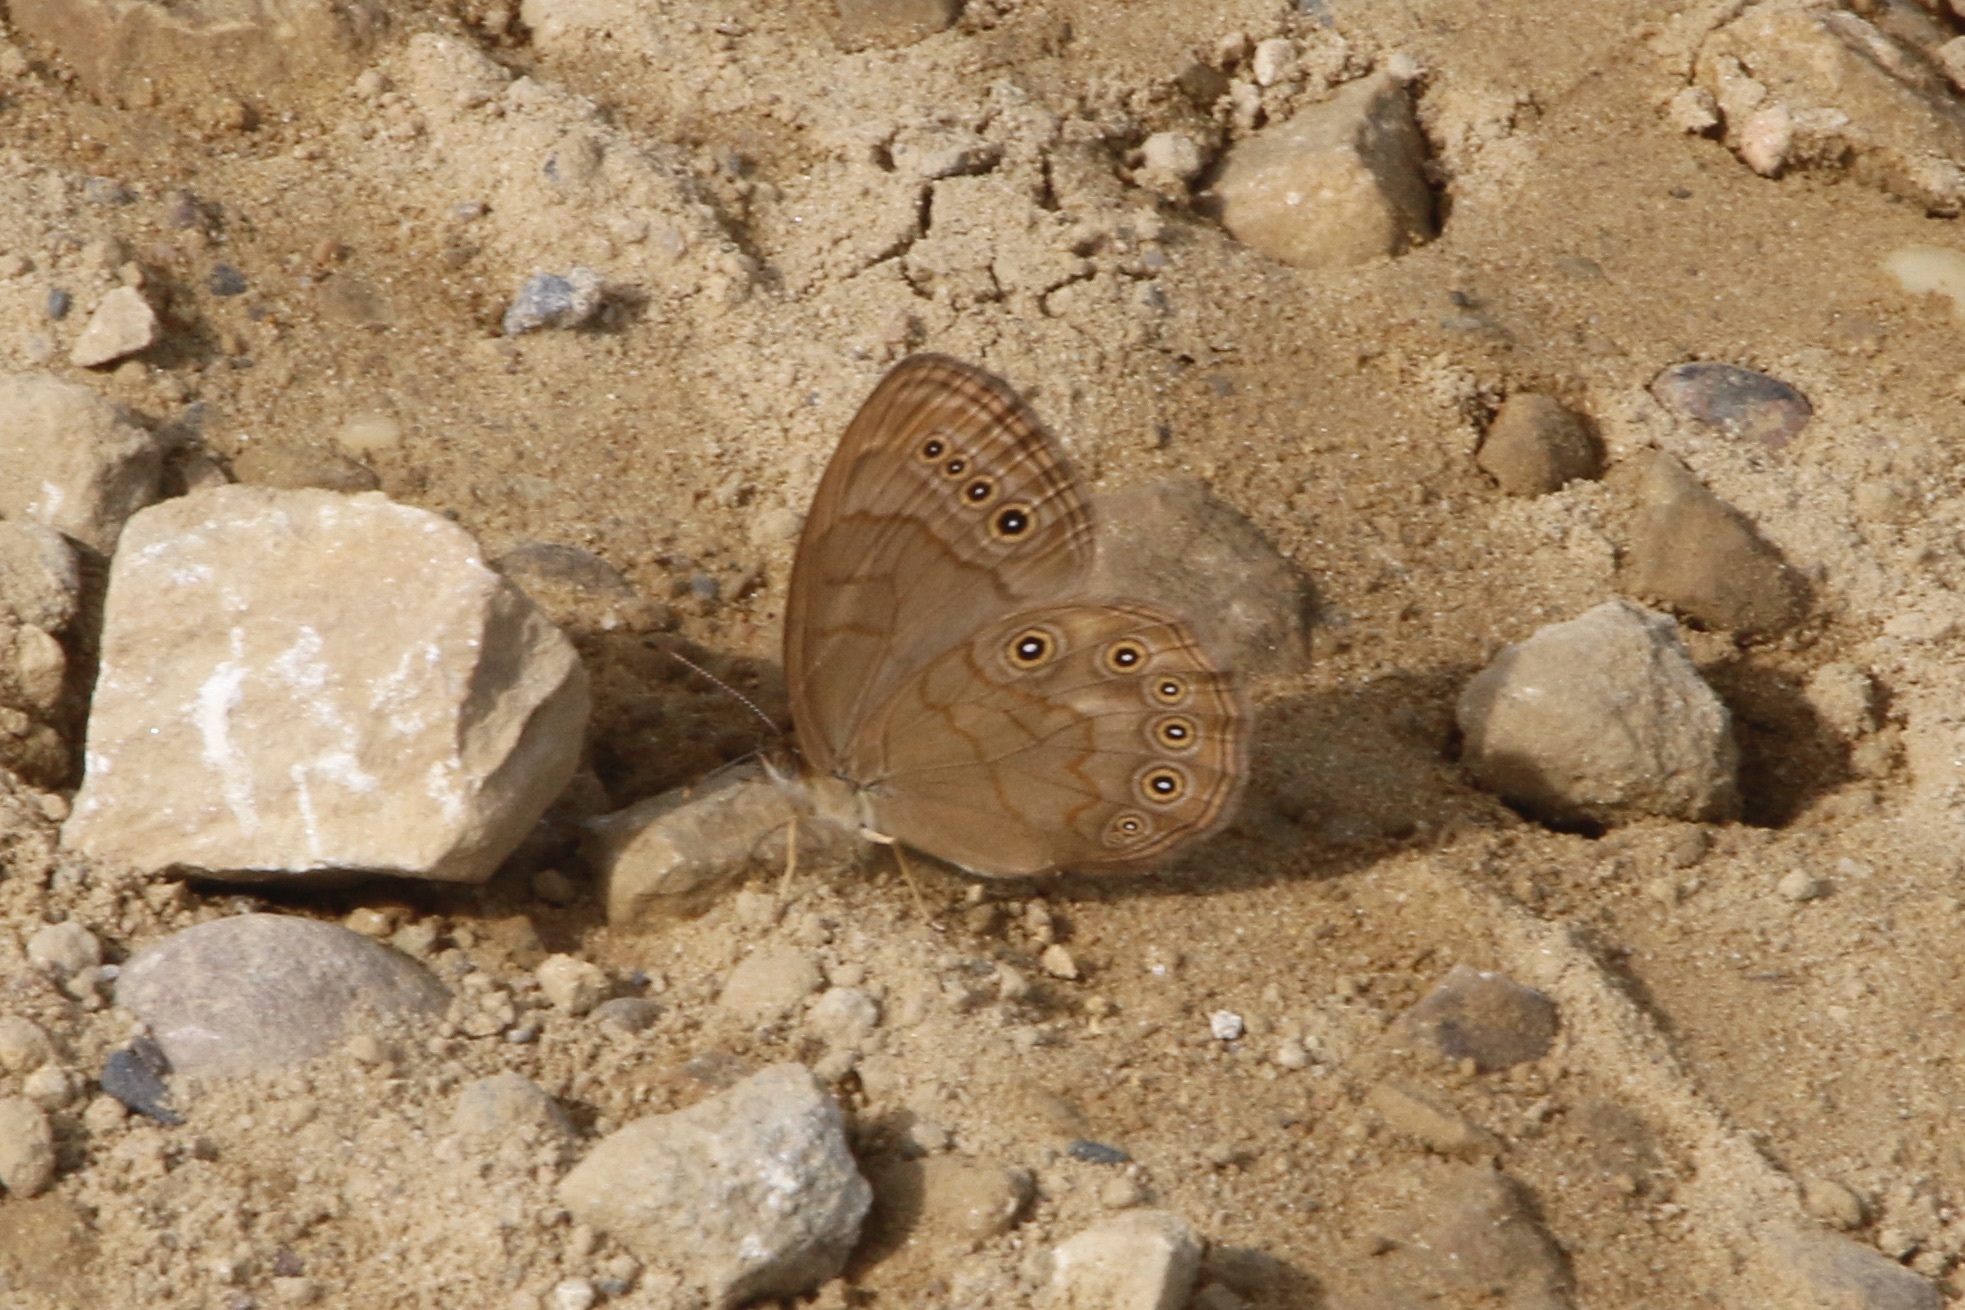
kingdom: Animalia
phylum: Arthropoda
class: Insecta
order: Lepidoptera
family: Nymphalidae
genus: Lethe
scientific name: Lethe eurydice
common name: Eyed brown
